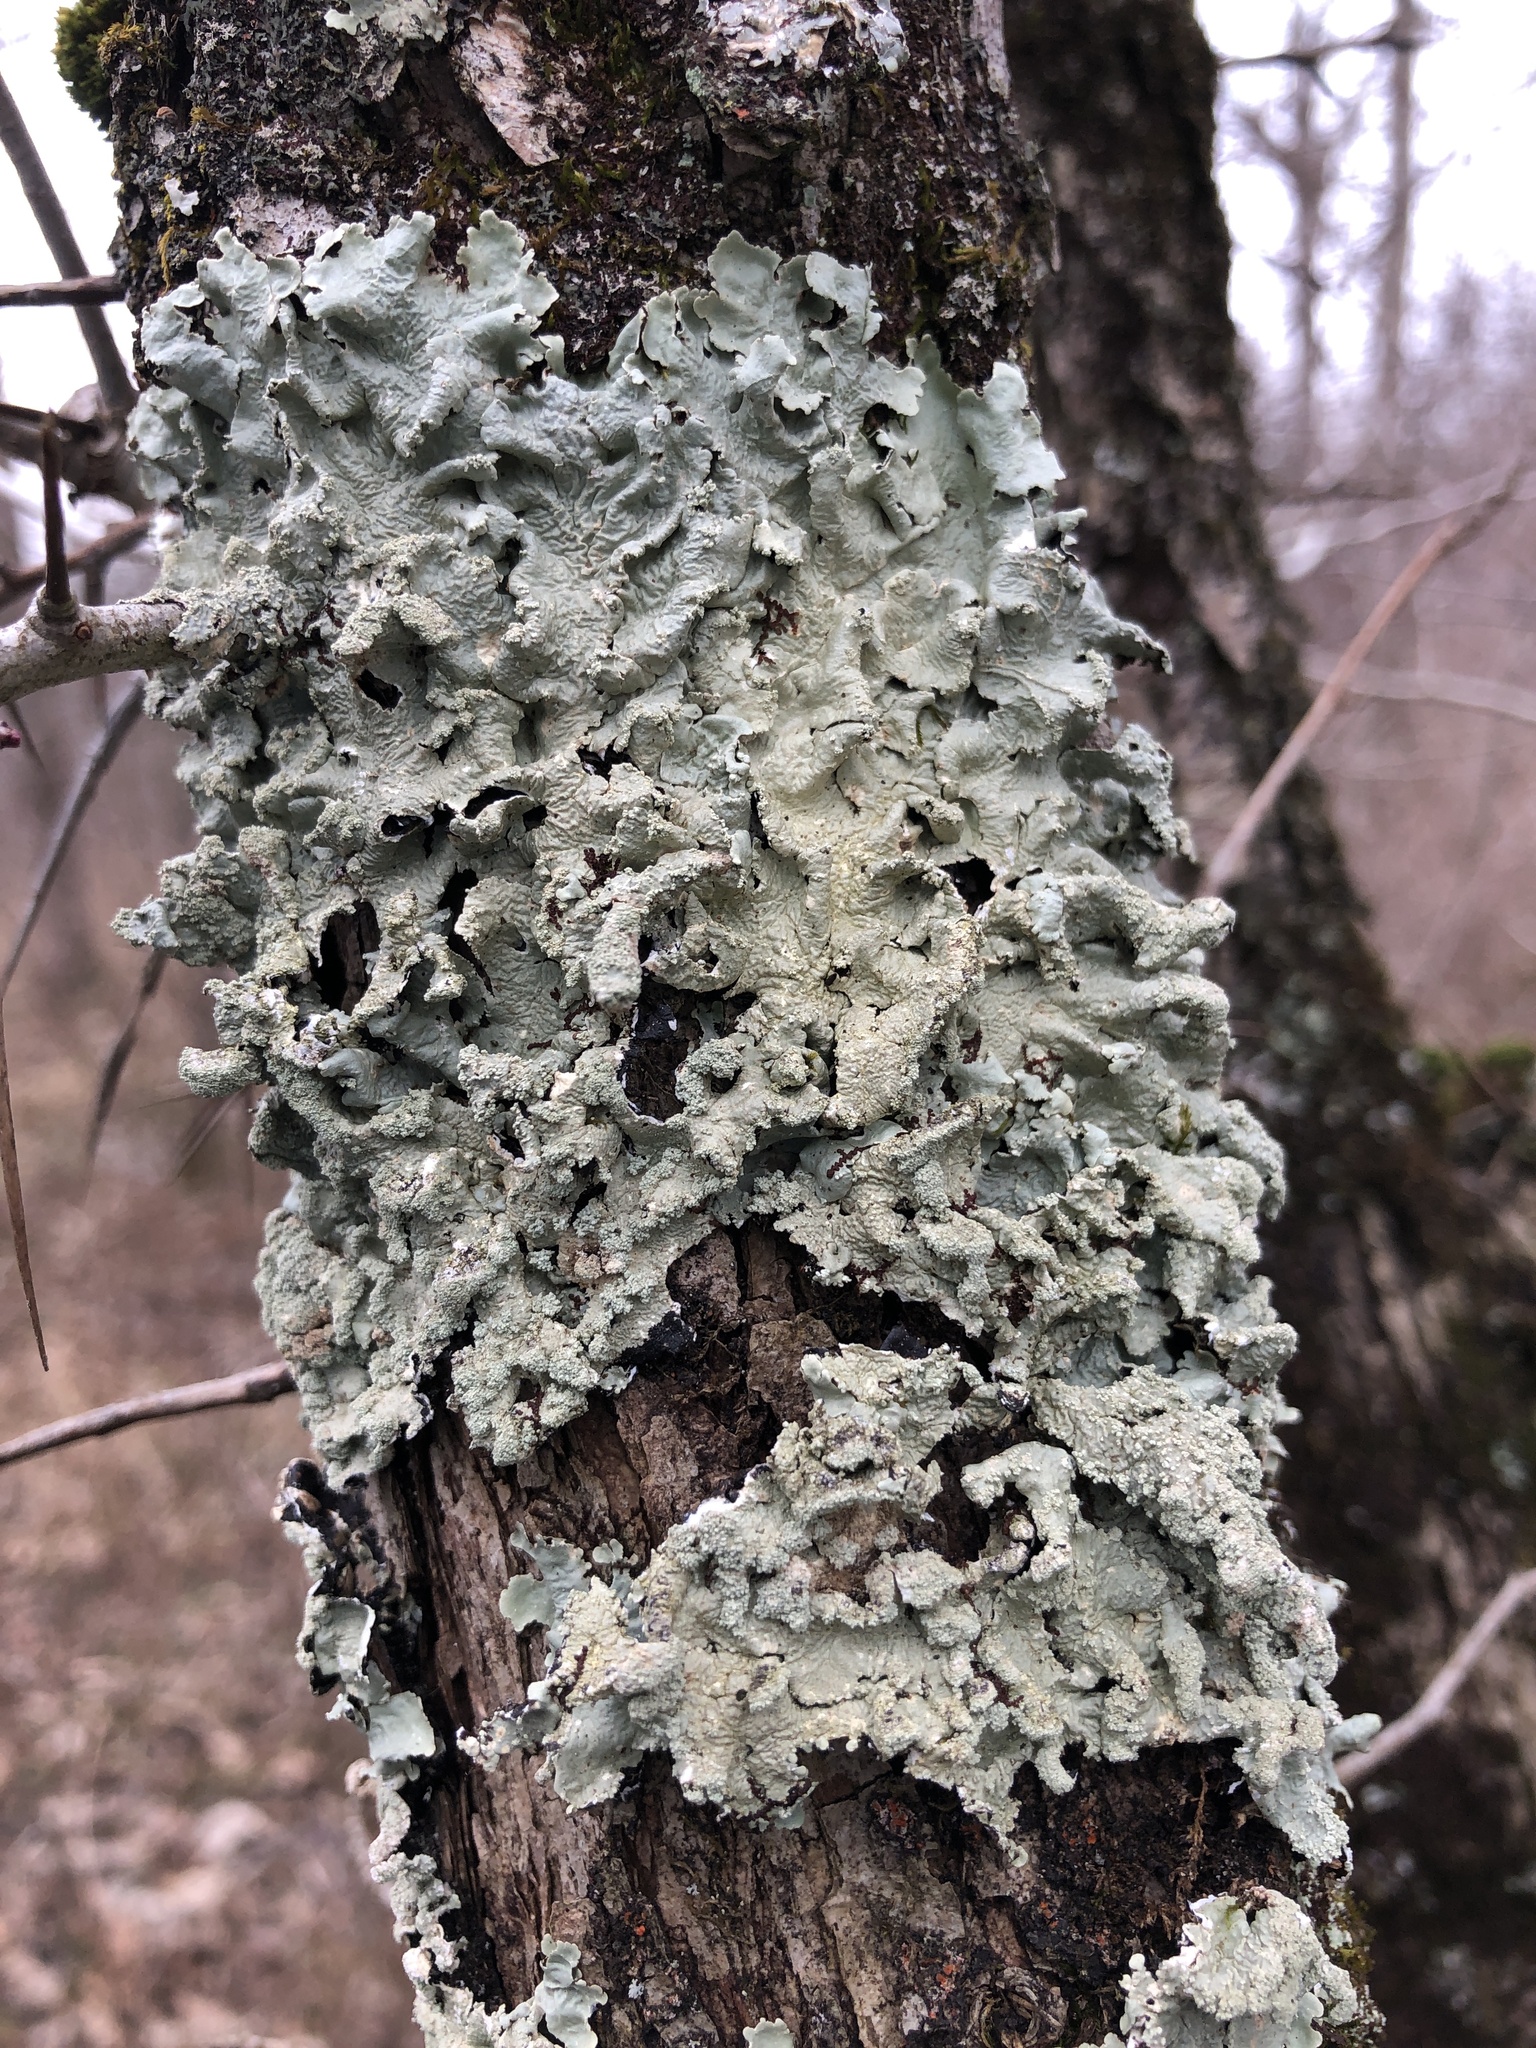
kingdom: Fungi
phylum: Ascomycota
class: Lecanoromycetes
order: Lecanorales
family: Parmeliaceae
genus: Flavoparmelia
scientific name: Flavoparmelia caperata
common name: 40-mile per hour lichen
